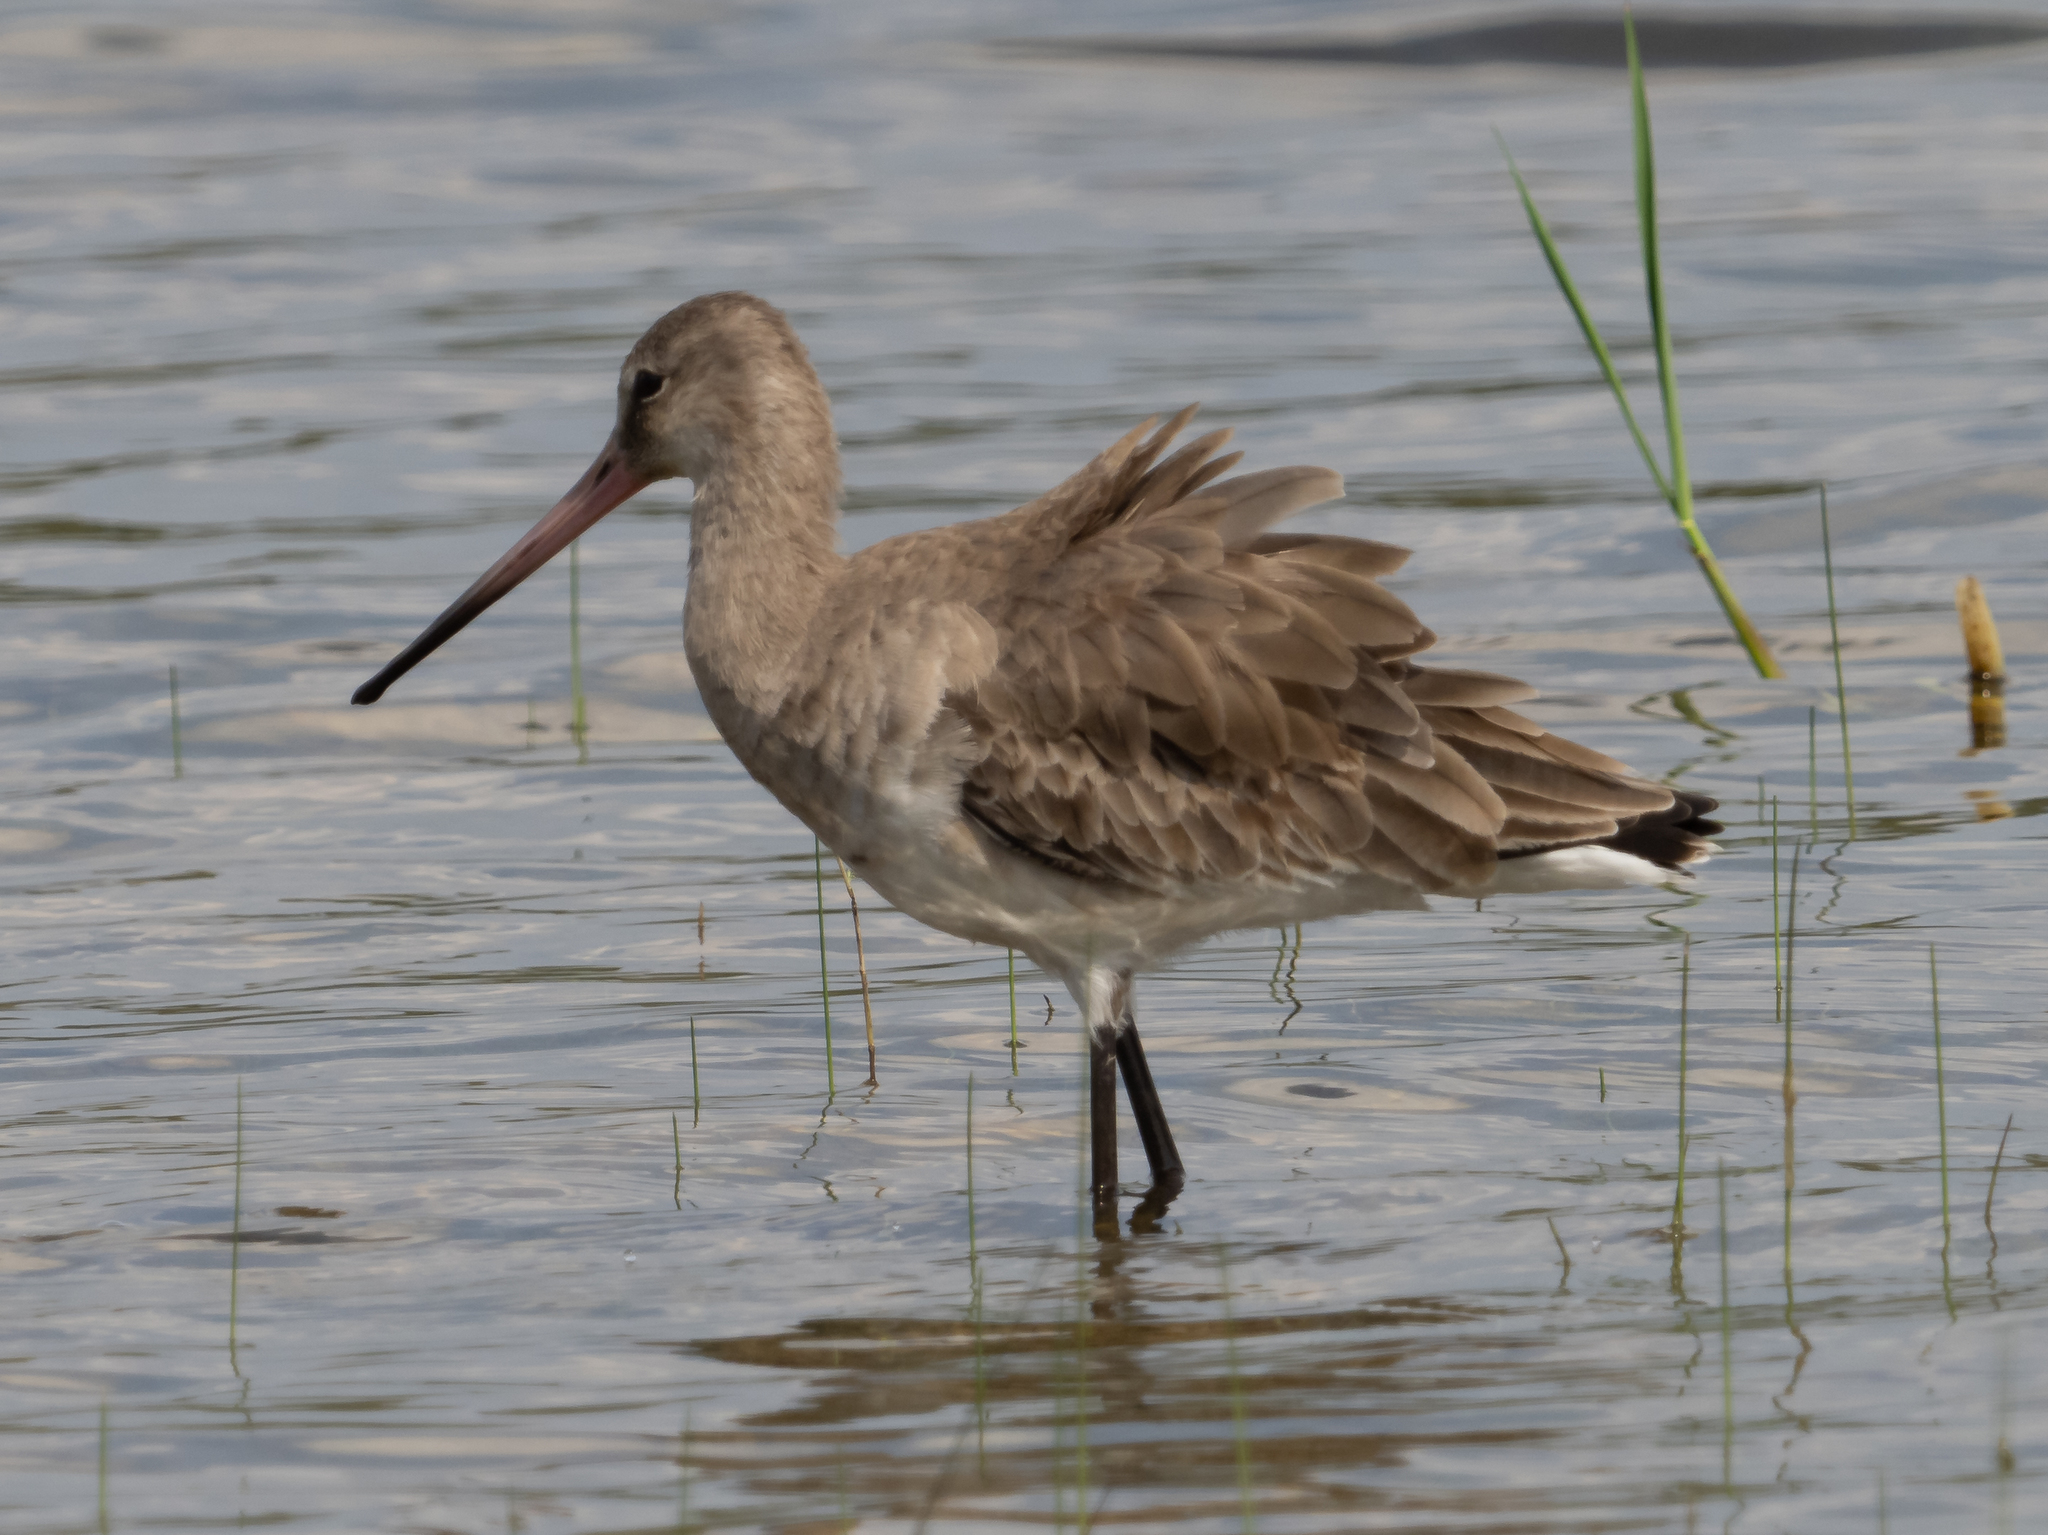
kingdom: Animalia
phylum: Chordata
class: Aves
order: Charadriiformes
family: Scolopacidae
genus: Limosa
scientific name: Limosa limosa
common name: Black-tailed godwit
